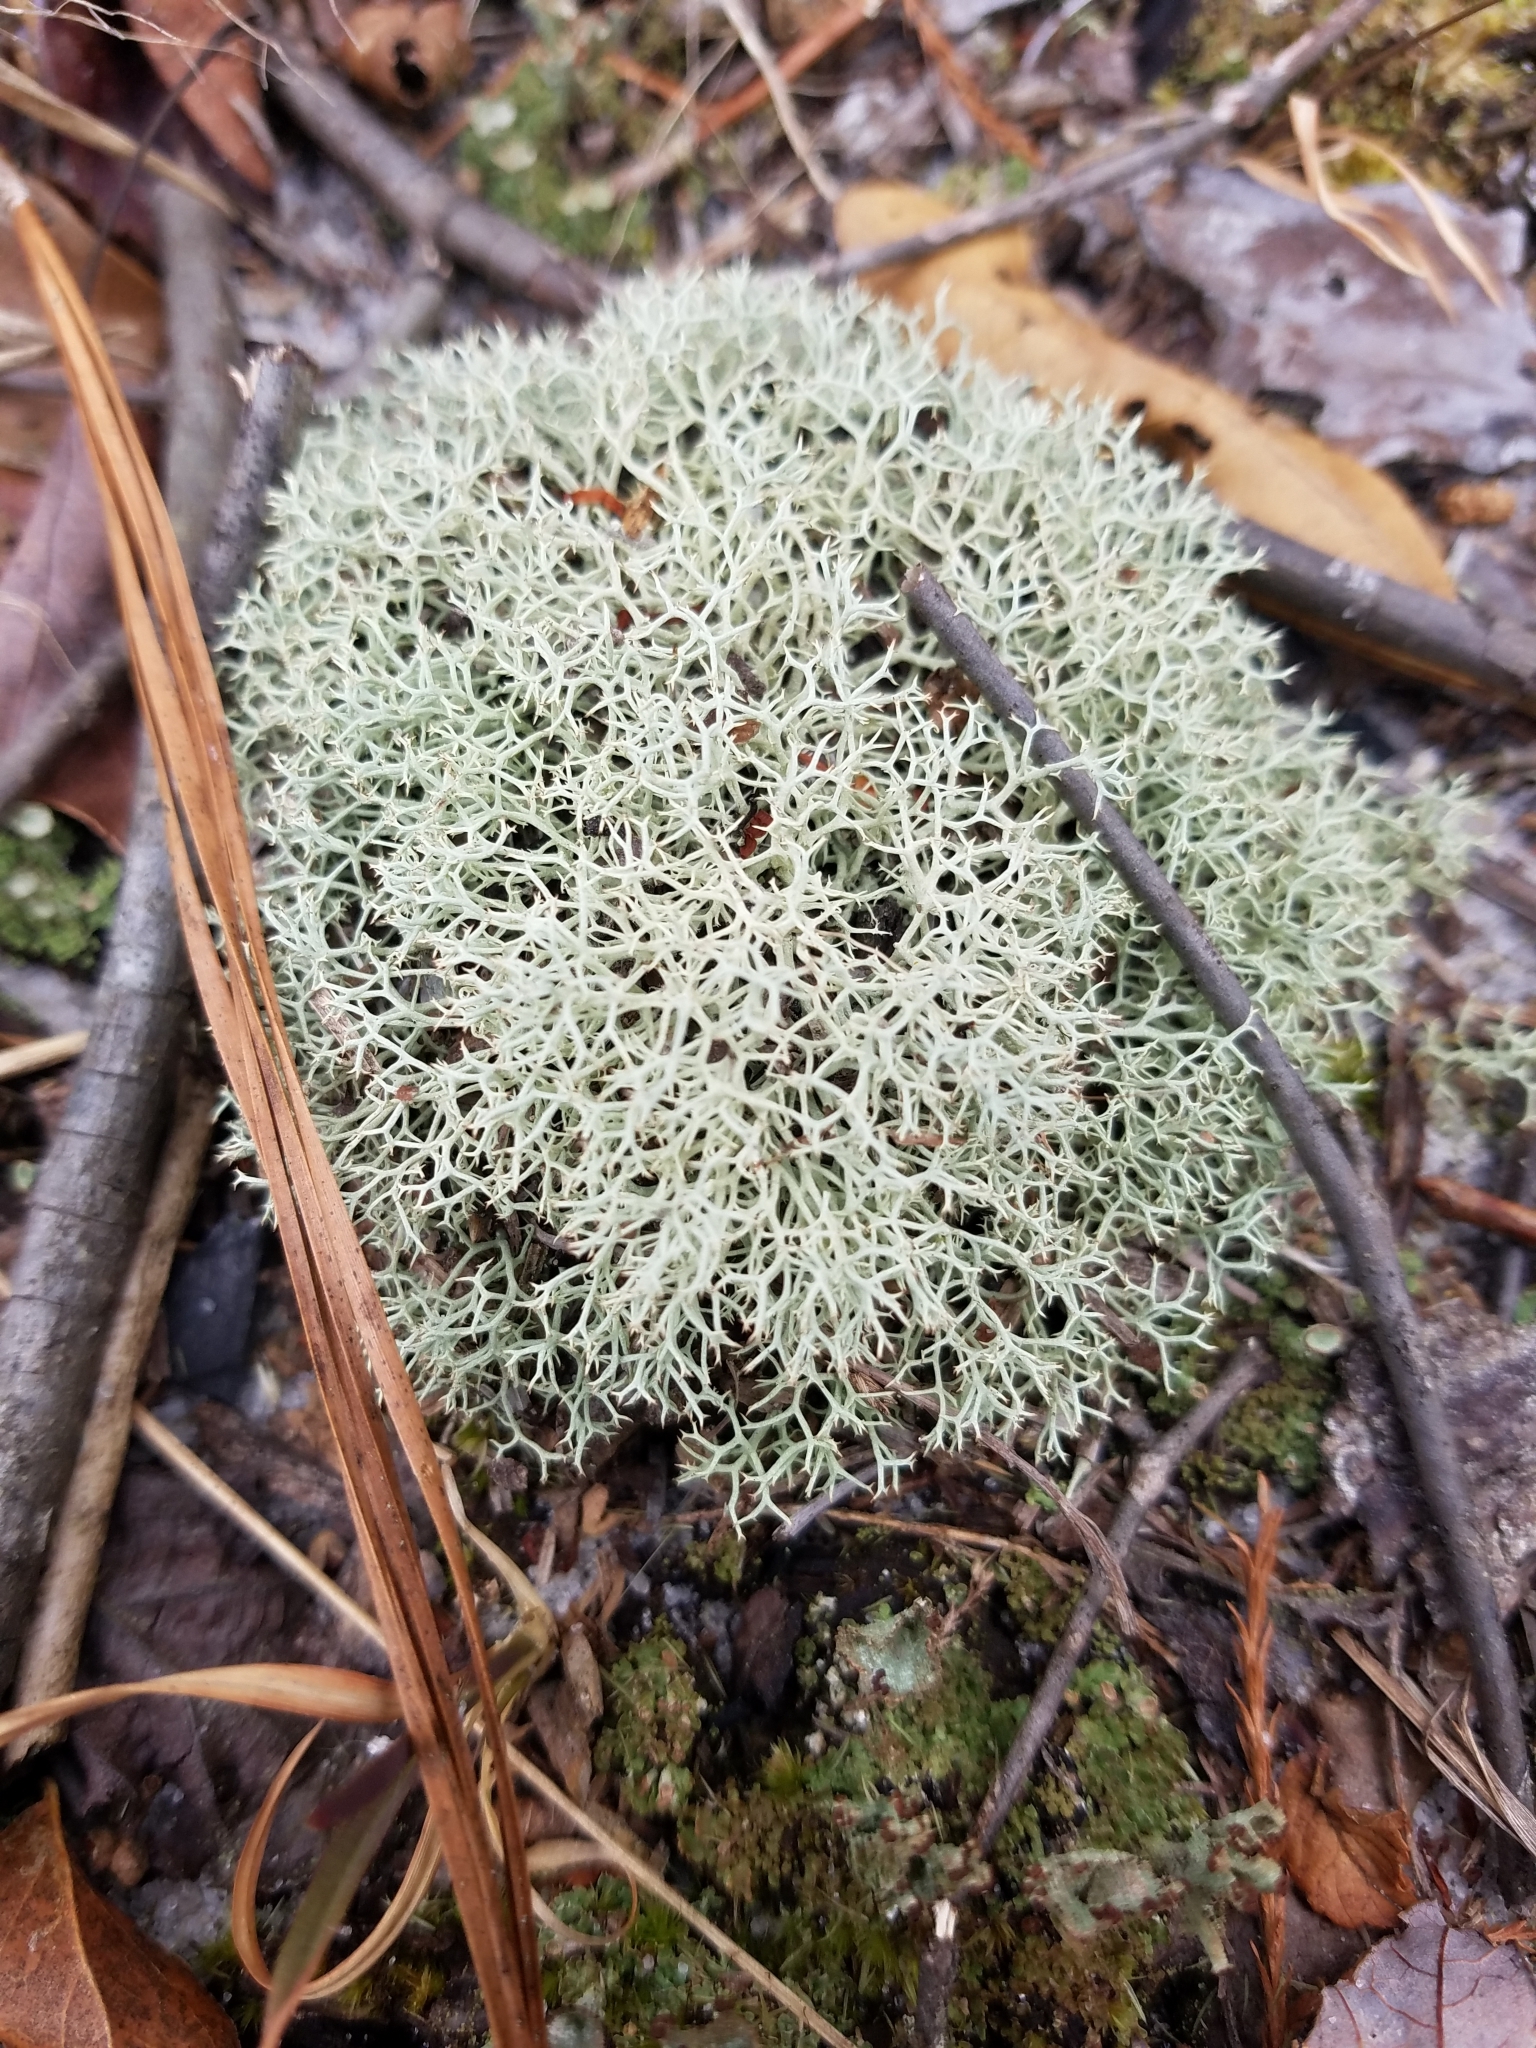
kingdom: Fungi
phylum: Ascomycota
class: Lecanoromycetes
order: Lecanorales
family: Cladoniaceae
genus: Cladonia
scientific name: Cladonia subtenuis
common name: Dixie reindeer lichen
